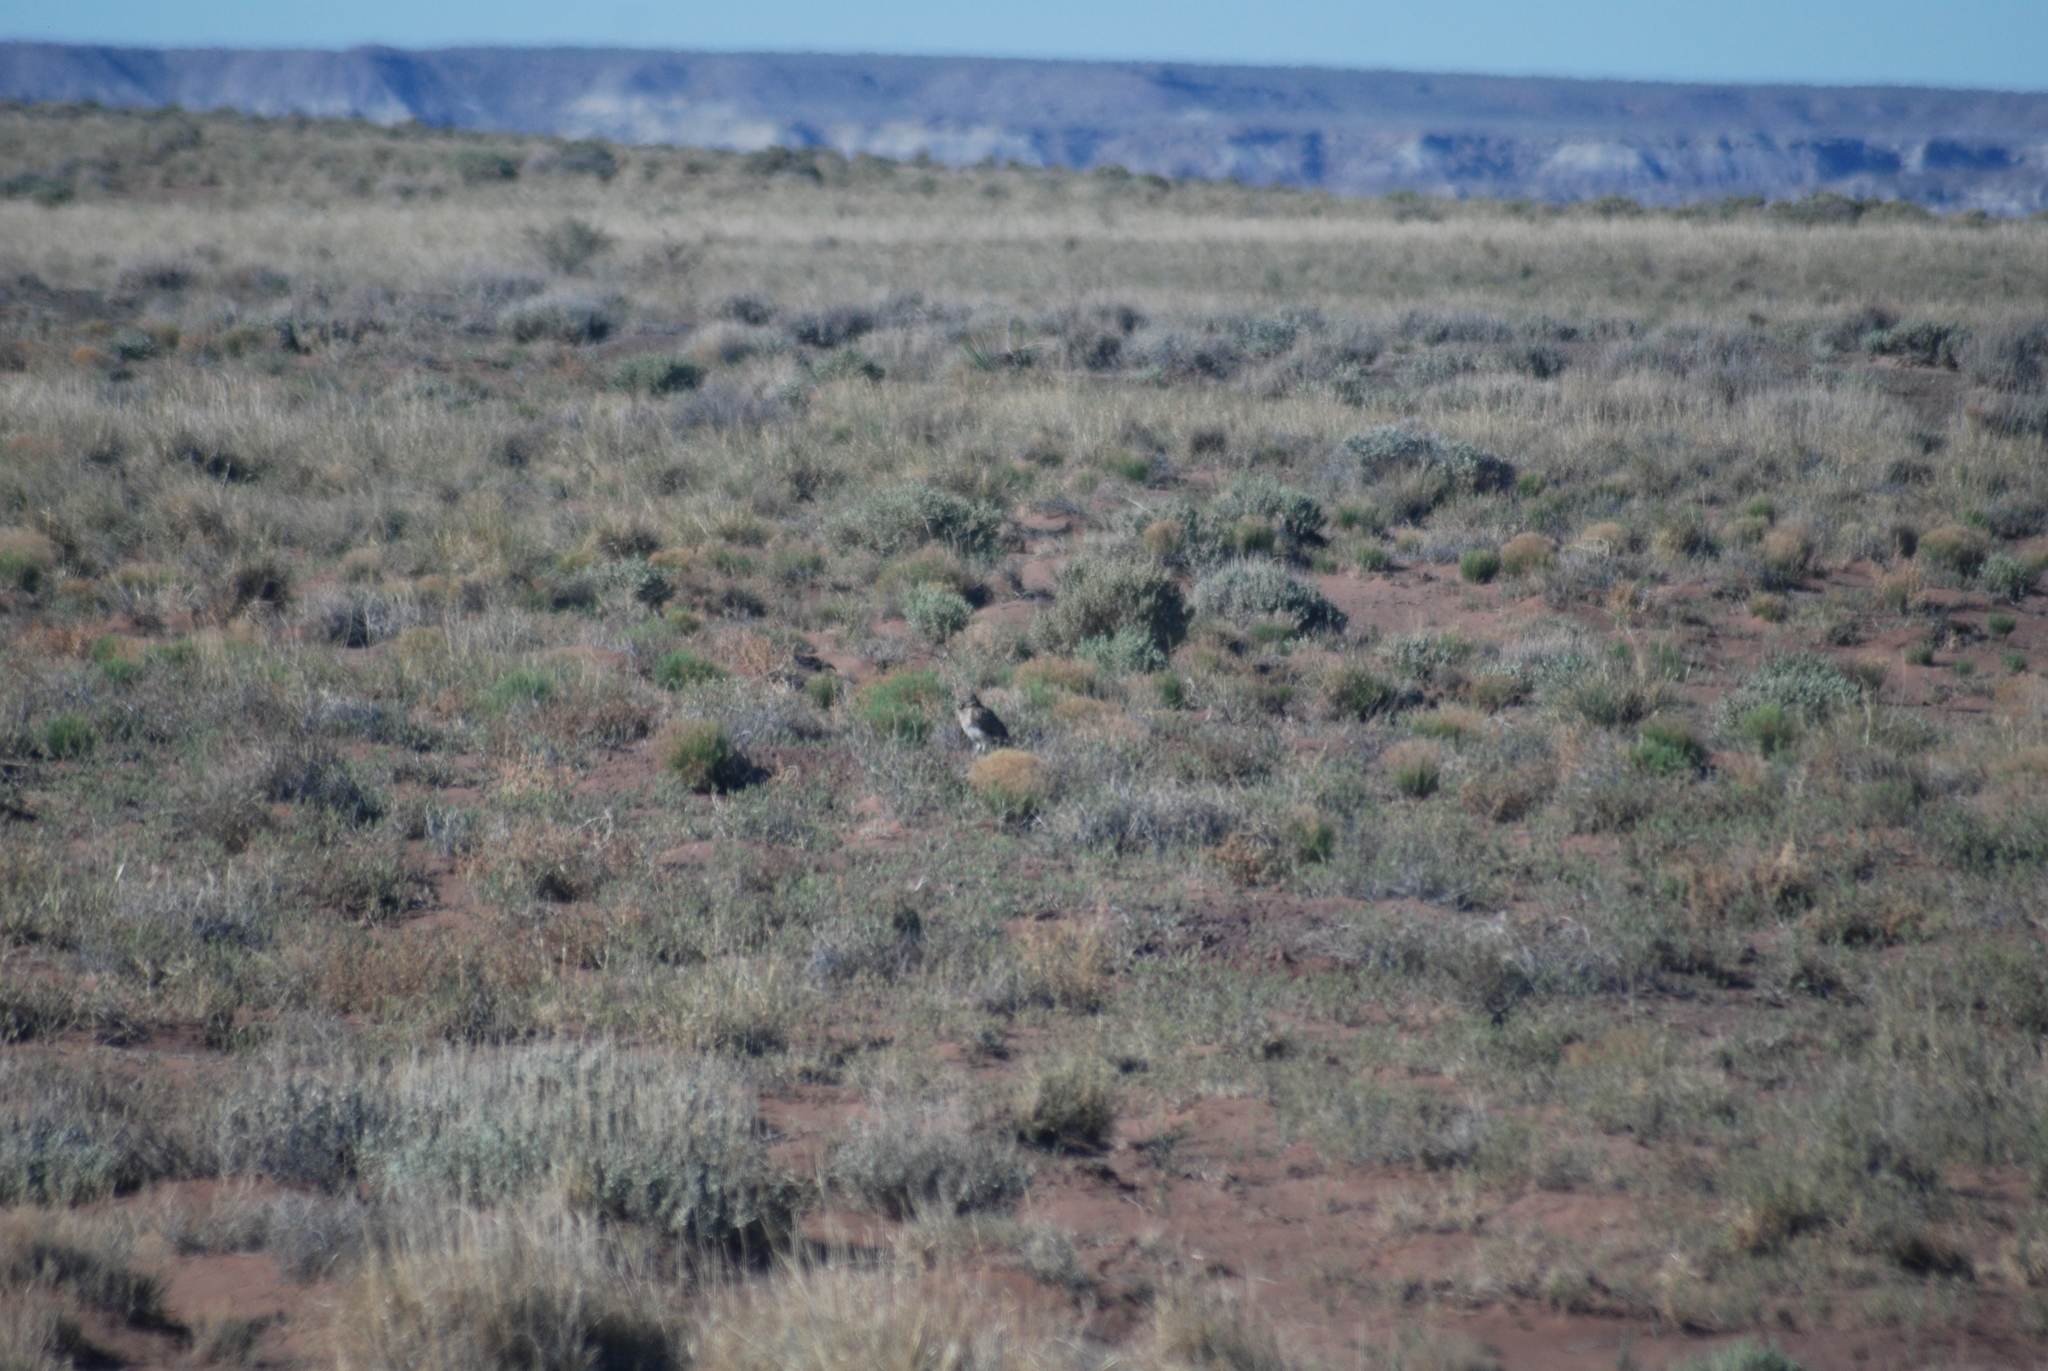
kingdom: Animalia
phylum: Chordata
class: Aves
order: Strigiformes
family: Strigidae
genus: Athene
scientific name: Athene cunicularia
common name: Burrowing owl
